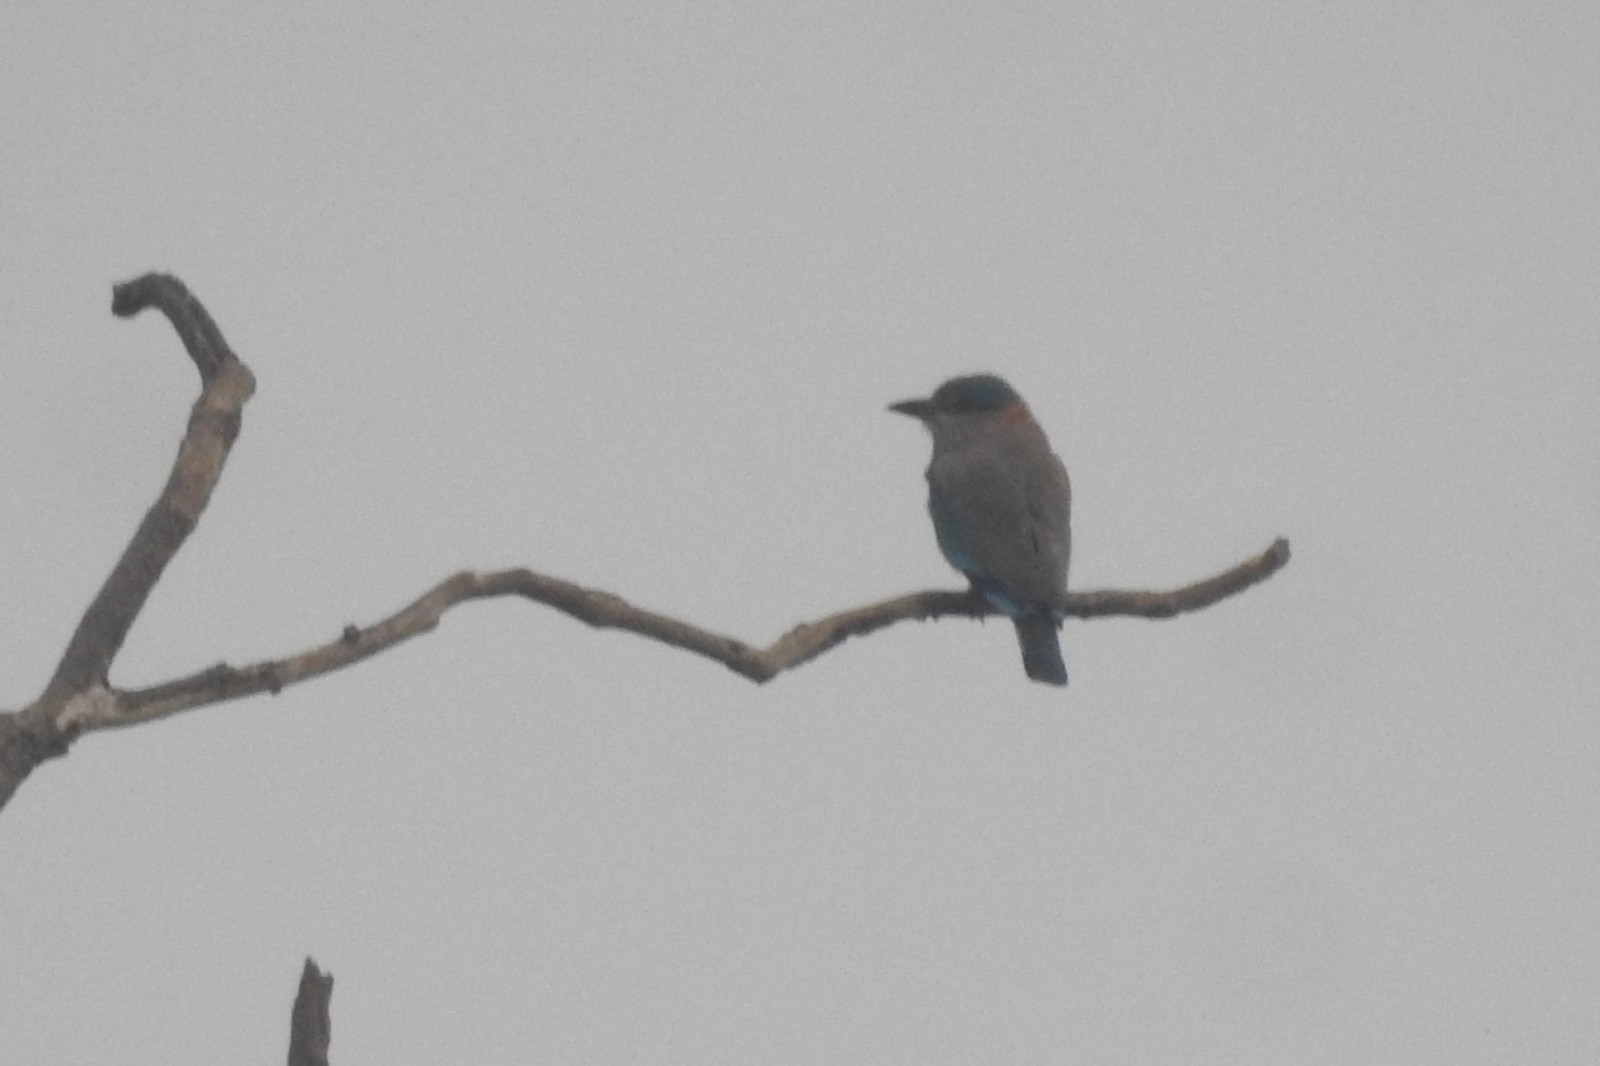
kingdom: Animalia
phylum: Chordata
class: Aves
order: Coraciiformes
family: Coraciidae
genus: Coracias
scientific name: Coracias benghalensis
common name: Indian roller
